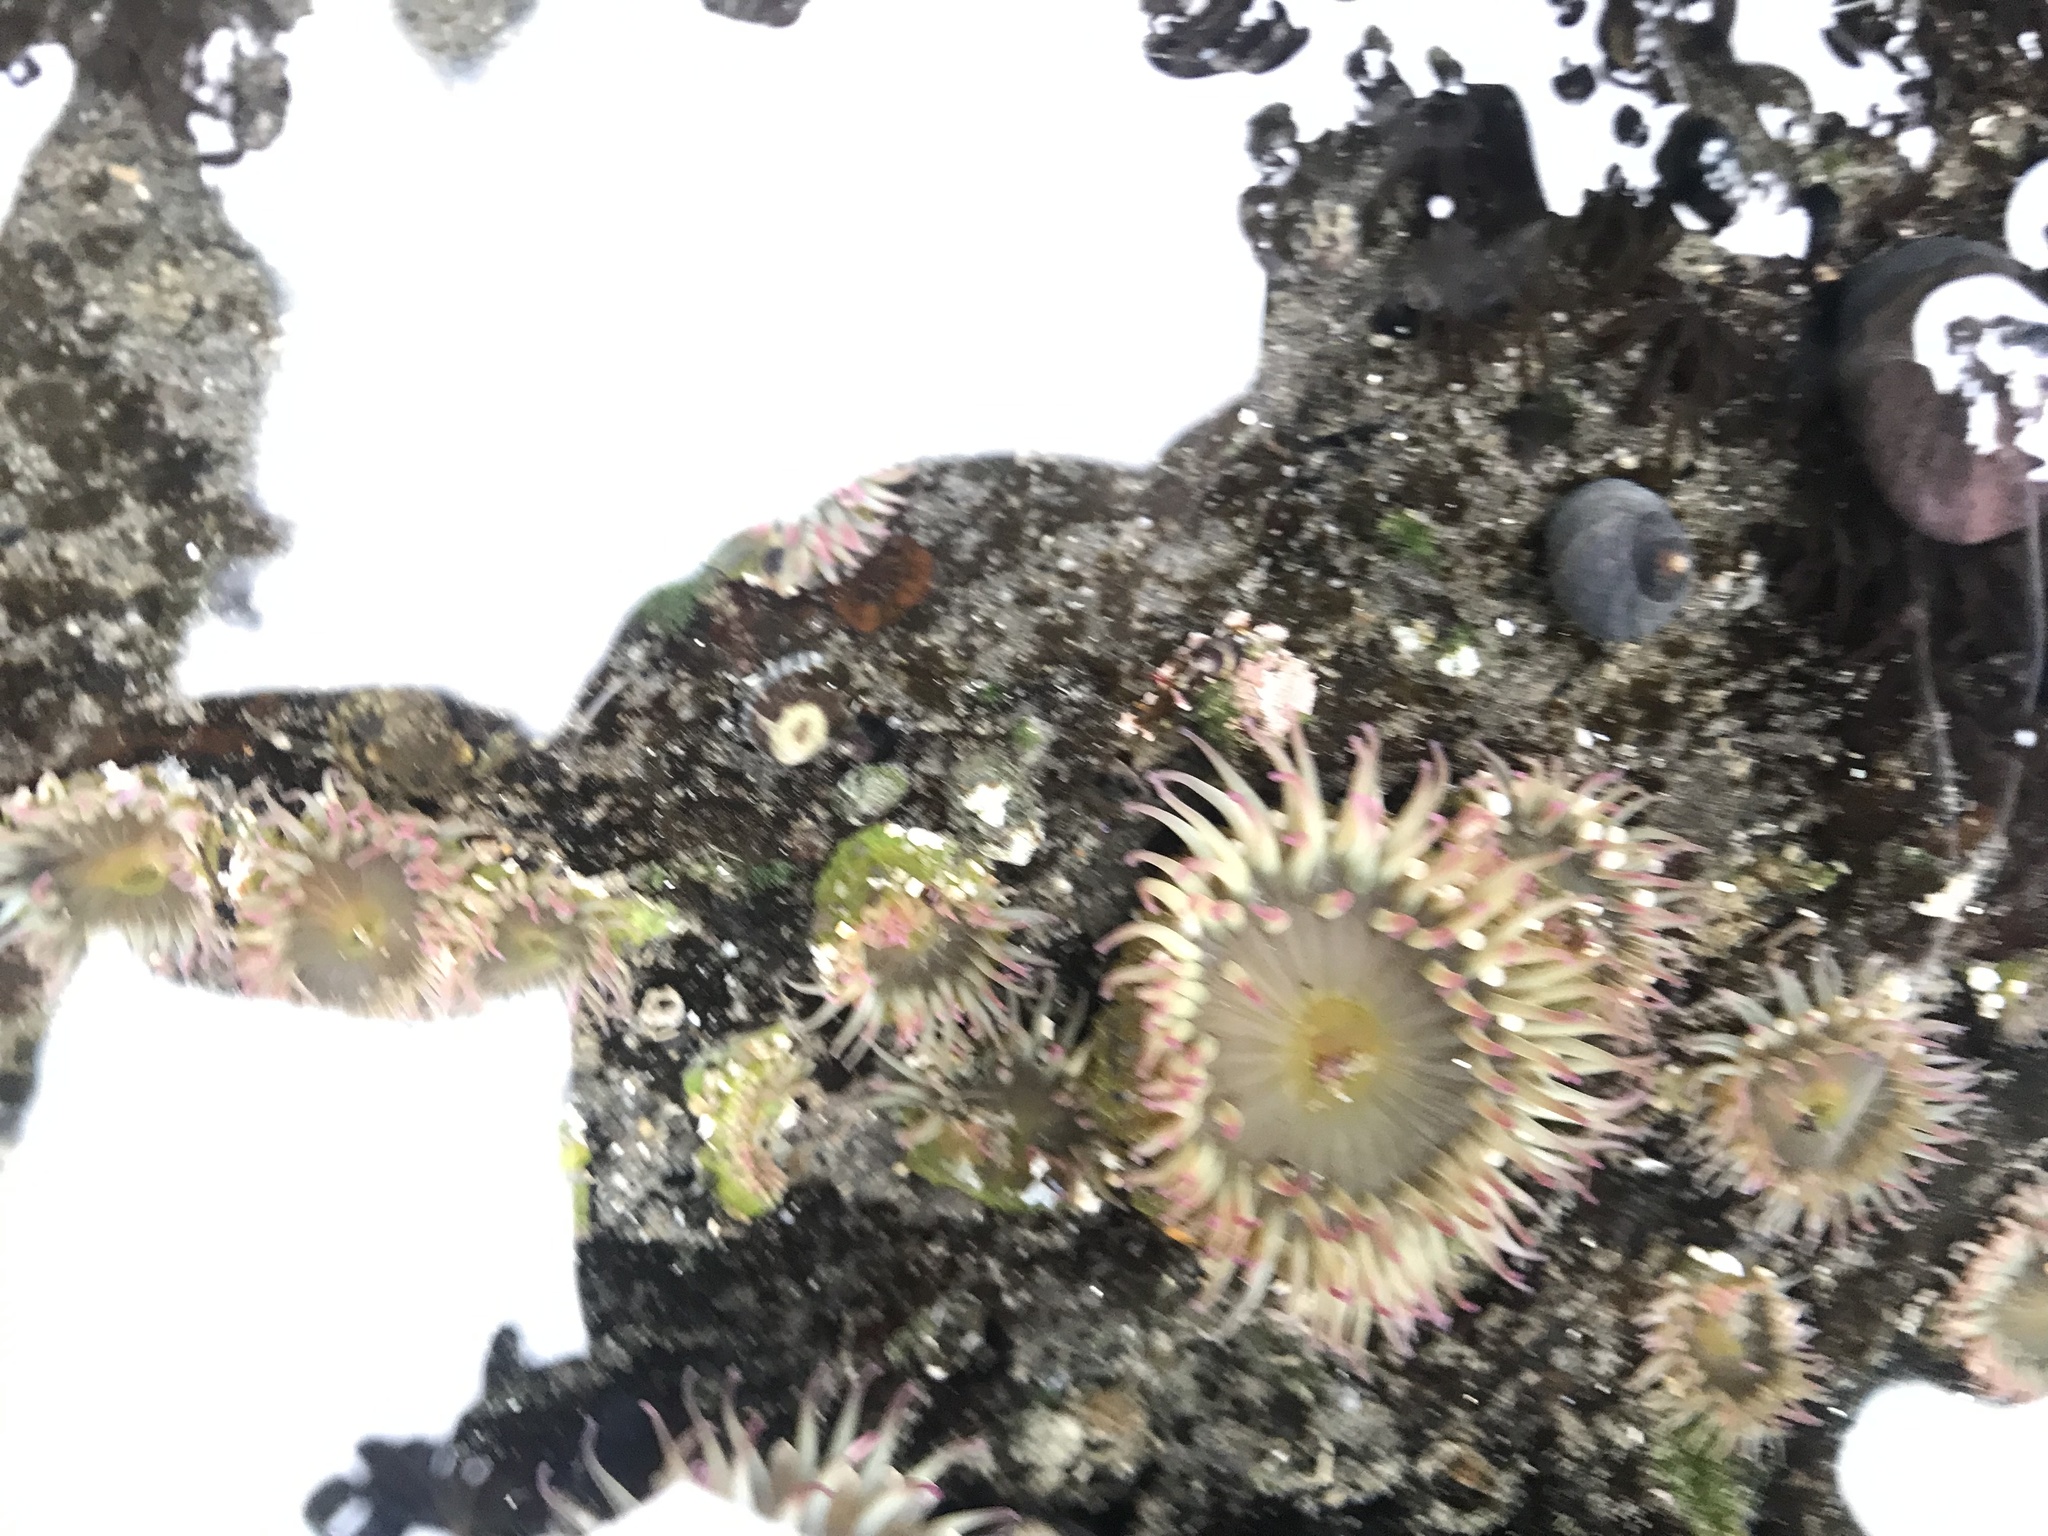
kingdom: Animalia
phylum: Cnidaria
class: Anthozoa
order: Actiniaria
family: Actiniidae
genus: Anthopleura
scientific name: Anthopleura elegantissima
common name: Clonal anemone
